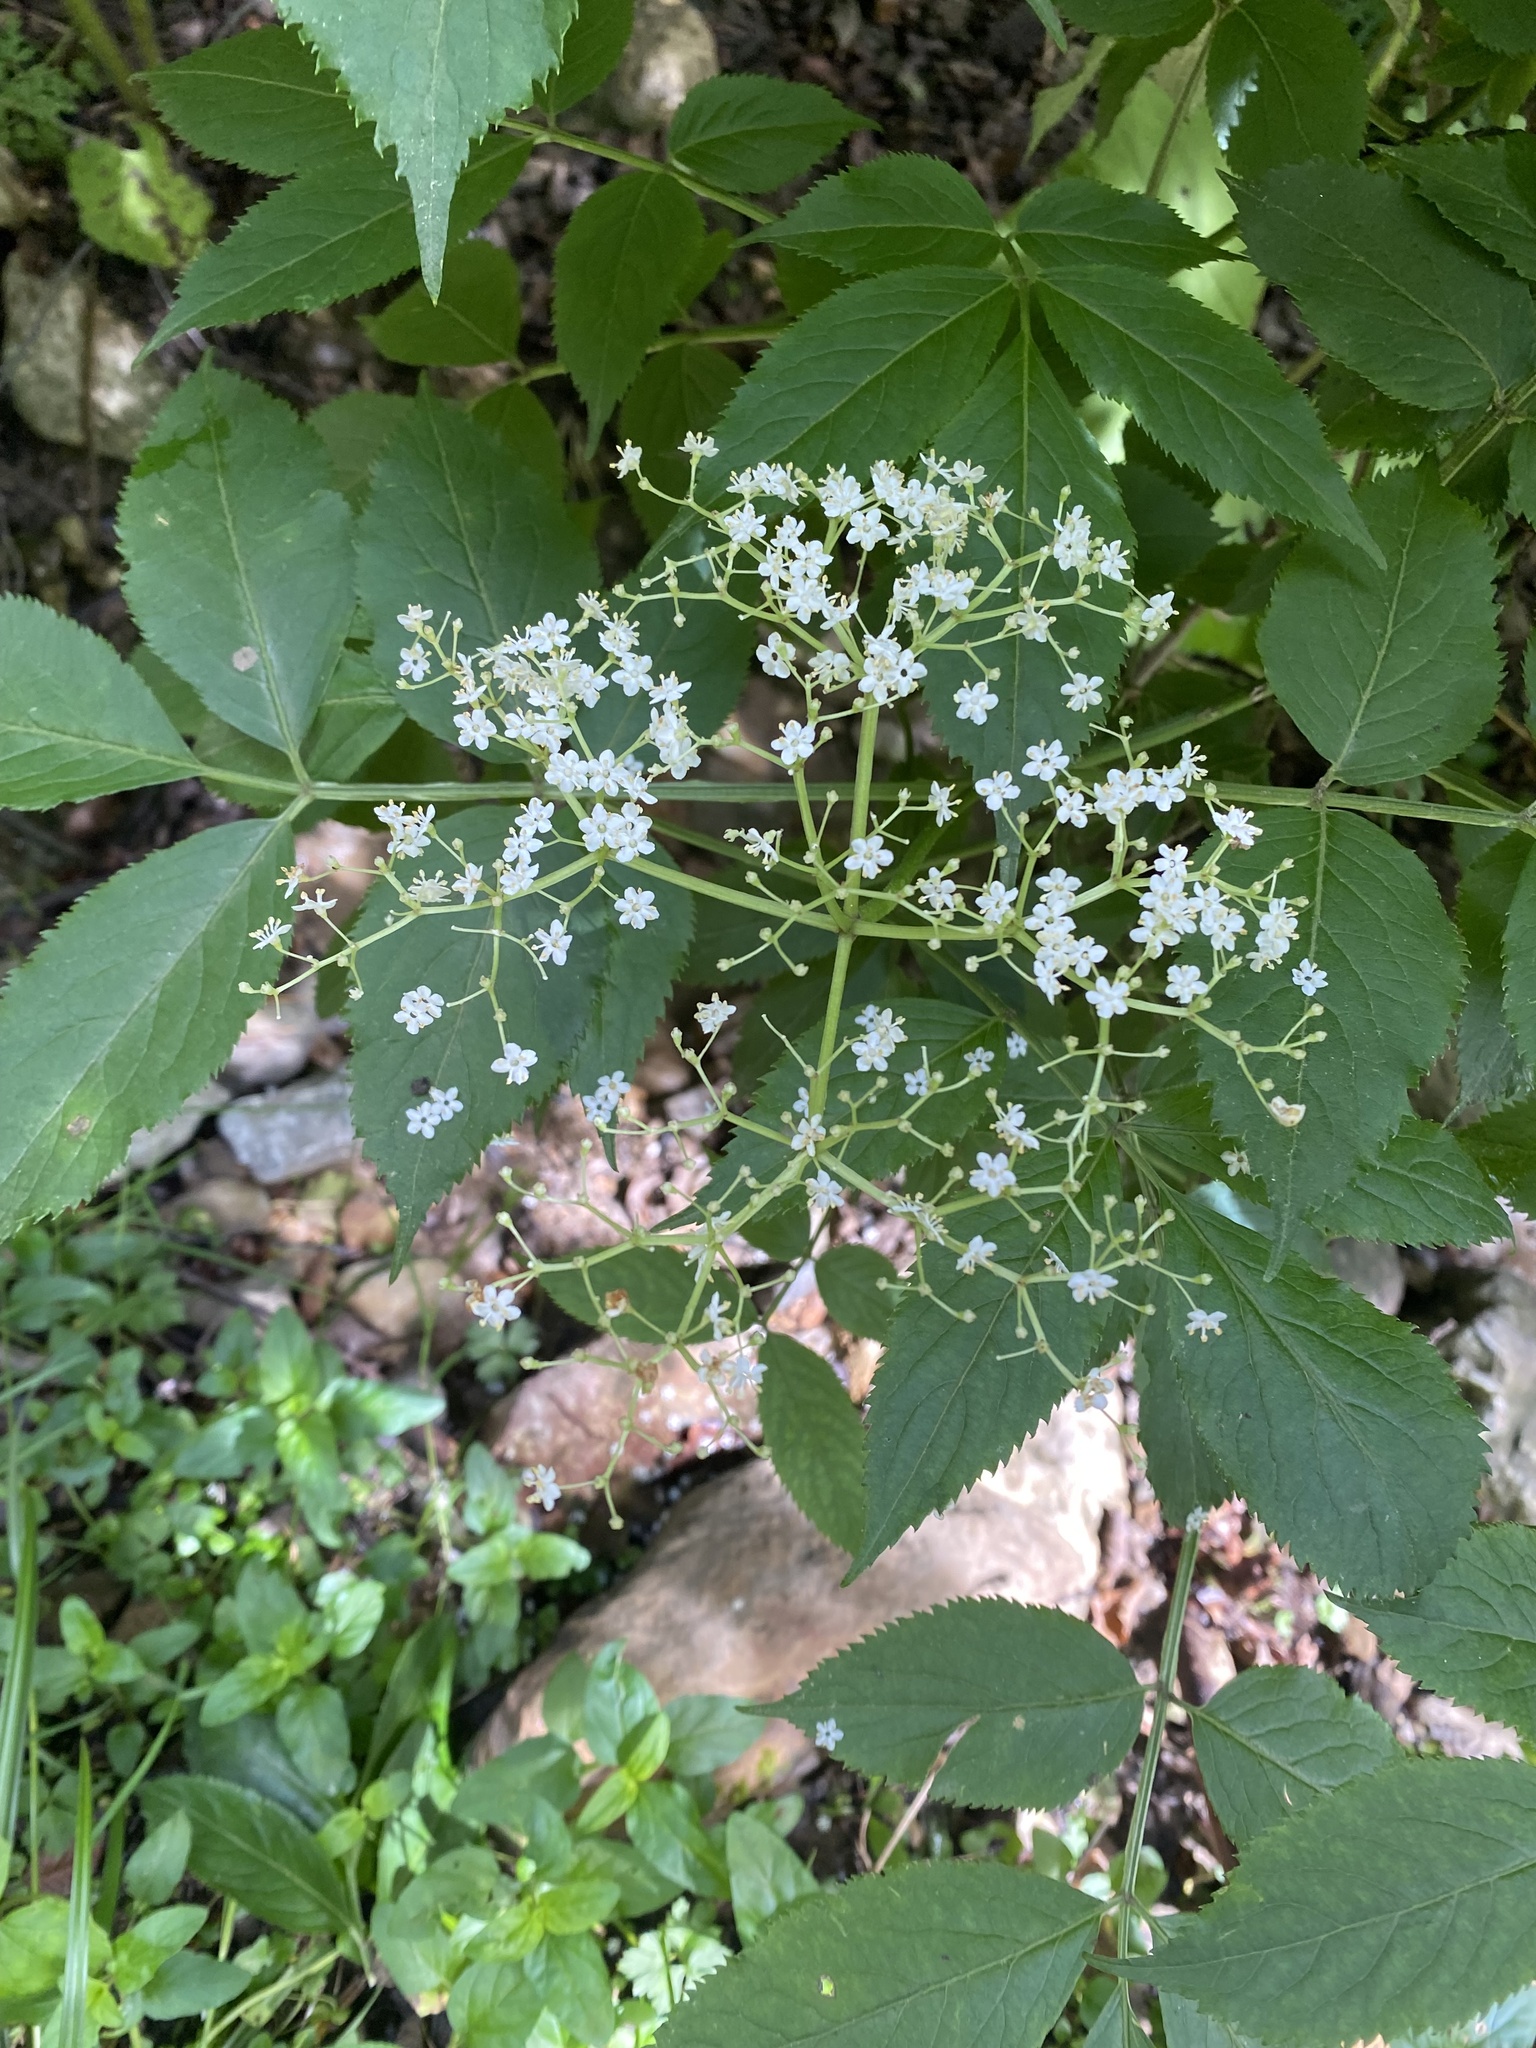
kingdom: Plantae
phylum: Tracheophyta
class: Magnoliopsida
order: Dipsacales
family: Viburnaceae
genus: Sambucus
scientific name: Sambucus nigra
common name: Elder
